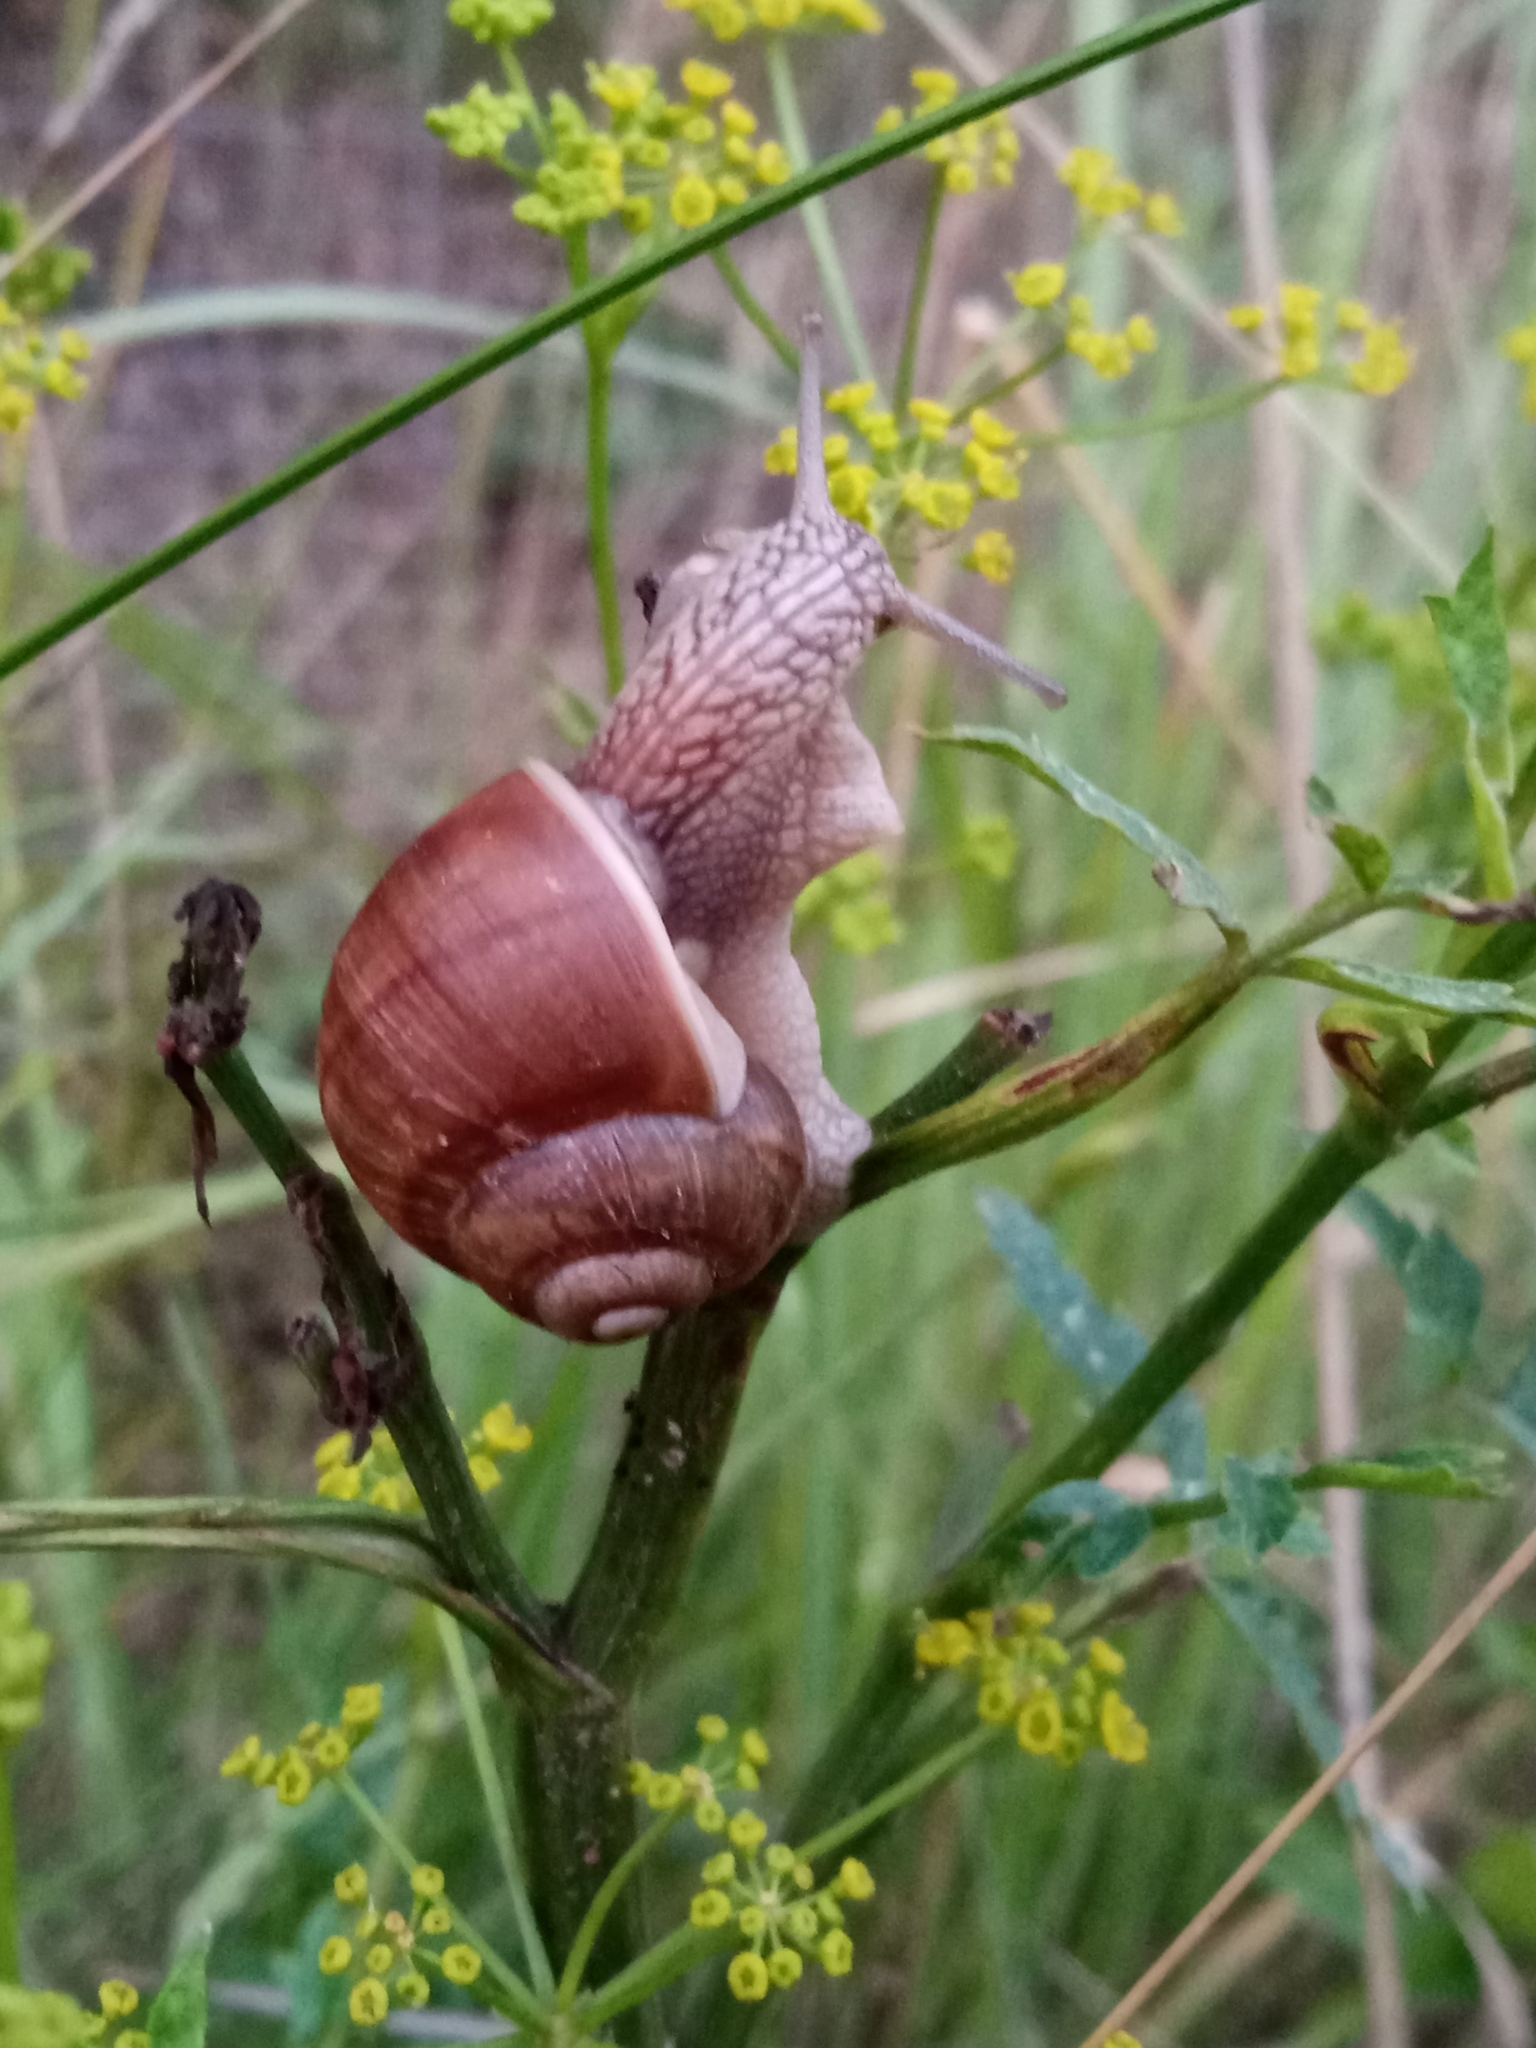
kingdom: Animalia
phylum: Mollusca
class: Gastropoda
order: Stylommatophora
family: Helicidae
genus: Helix
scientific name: Helix pomatia
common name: Roman snail
